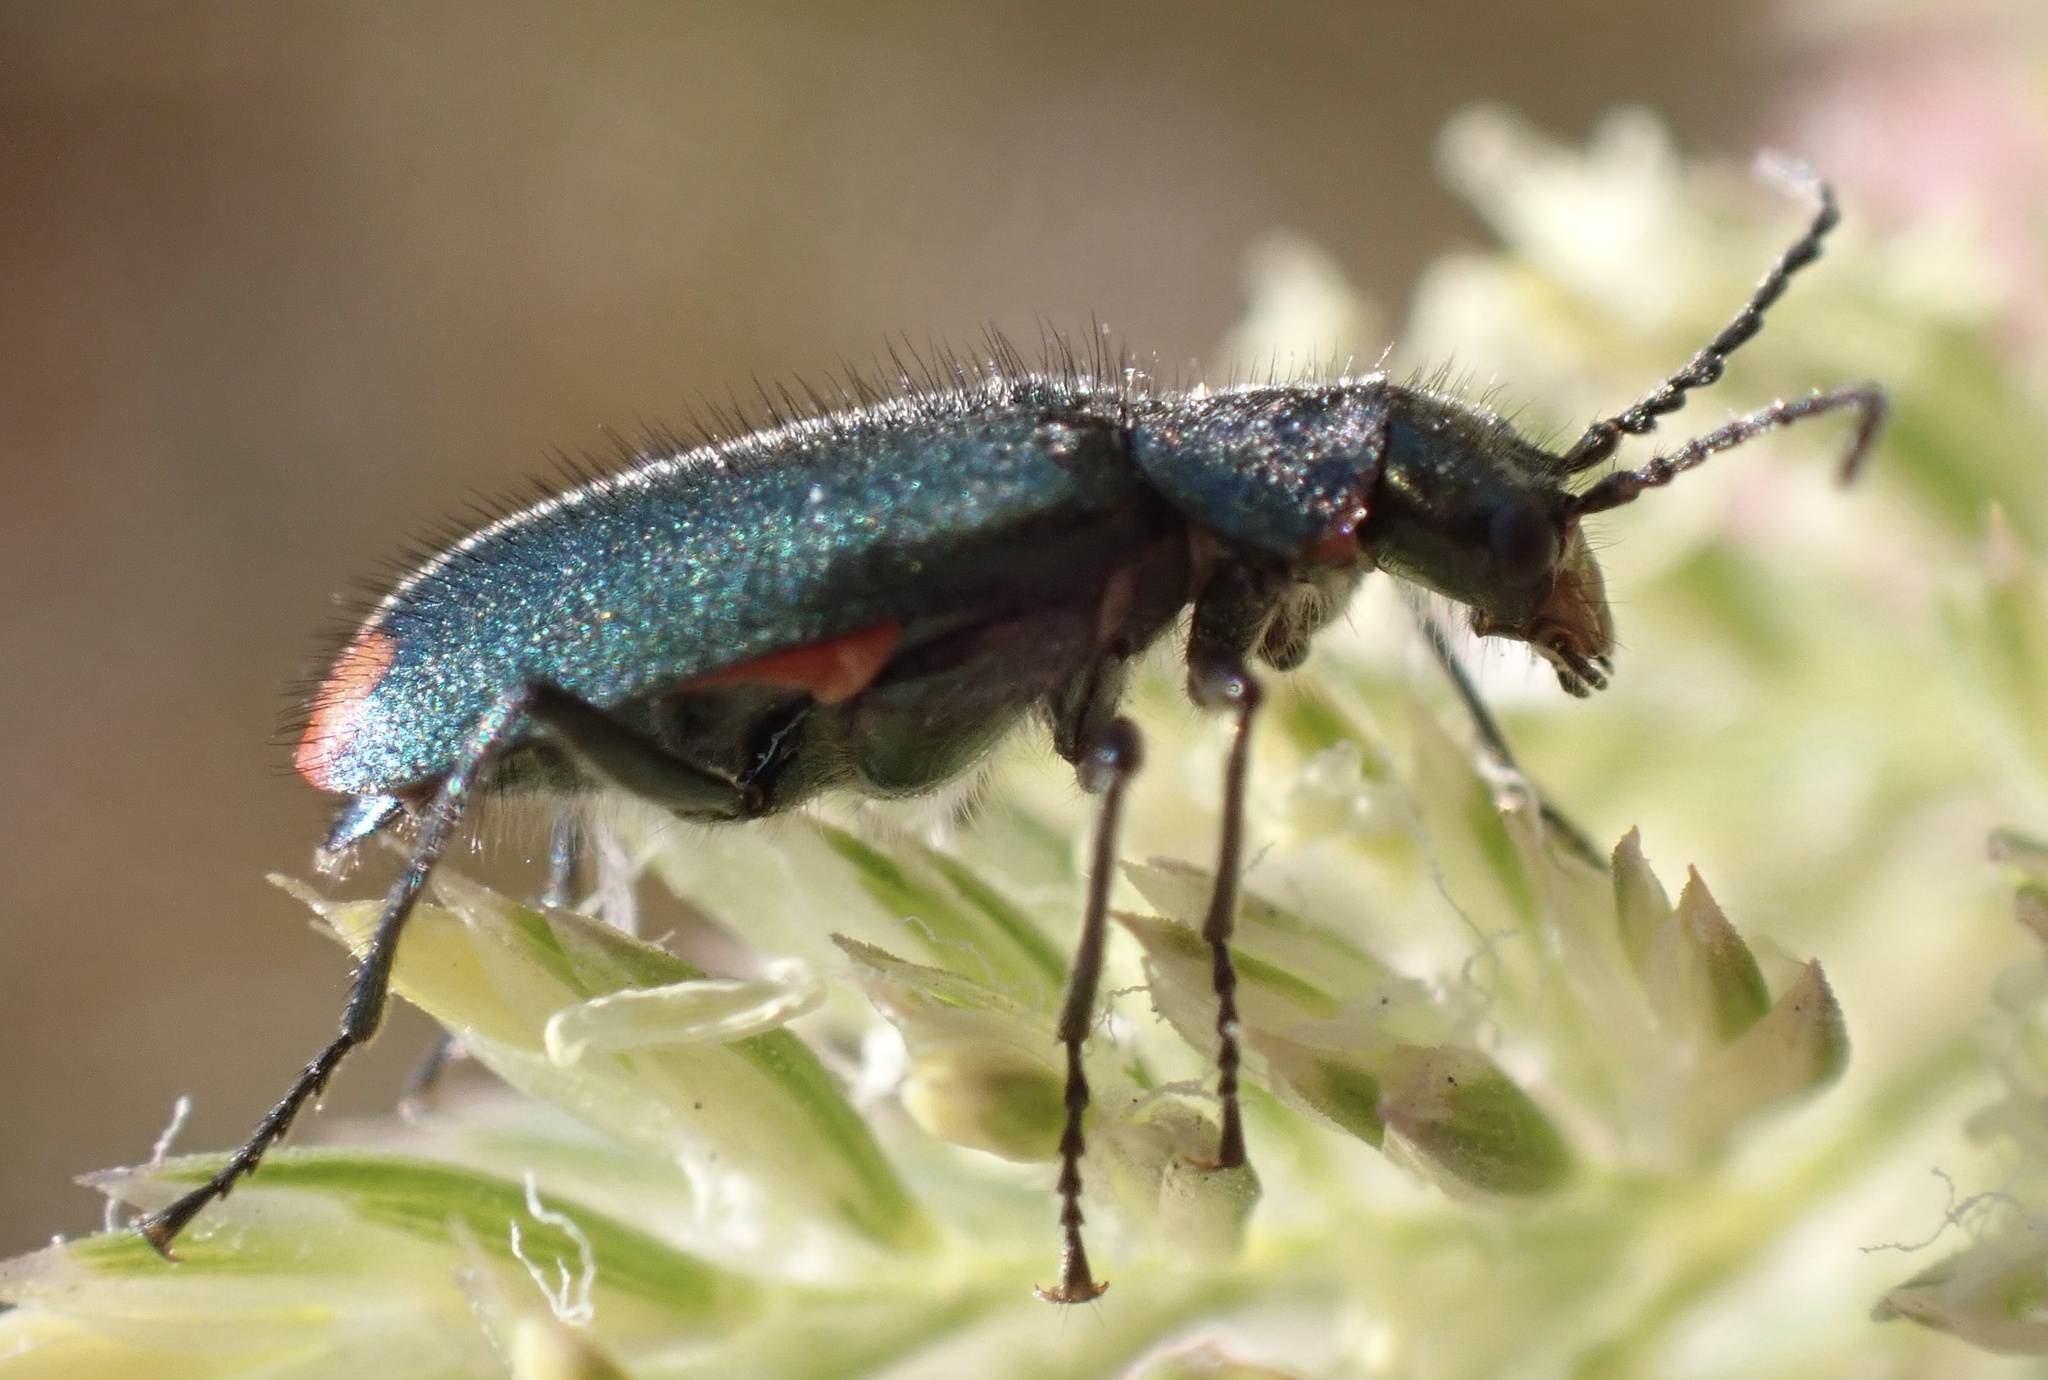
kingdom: Animalia
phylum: Arthropoda
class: Insecta
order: Coleoptera
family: Melyridae
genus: Malachius
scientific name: Malachius bipustulatus
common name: Malachite beetle
